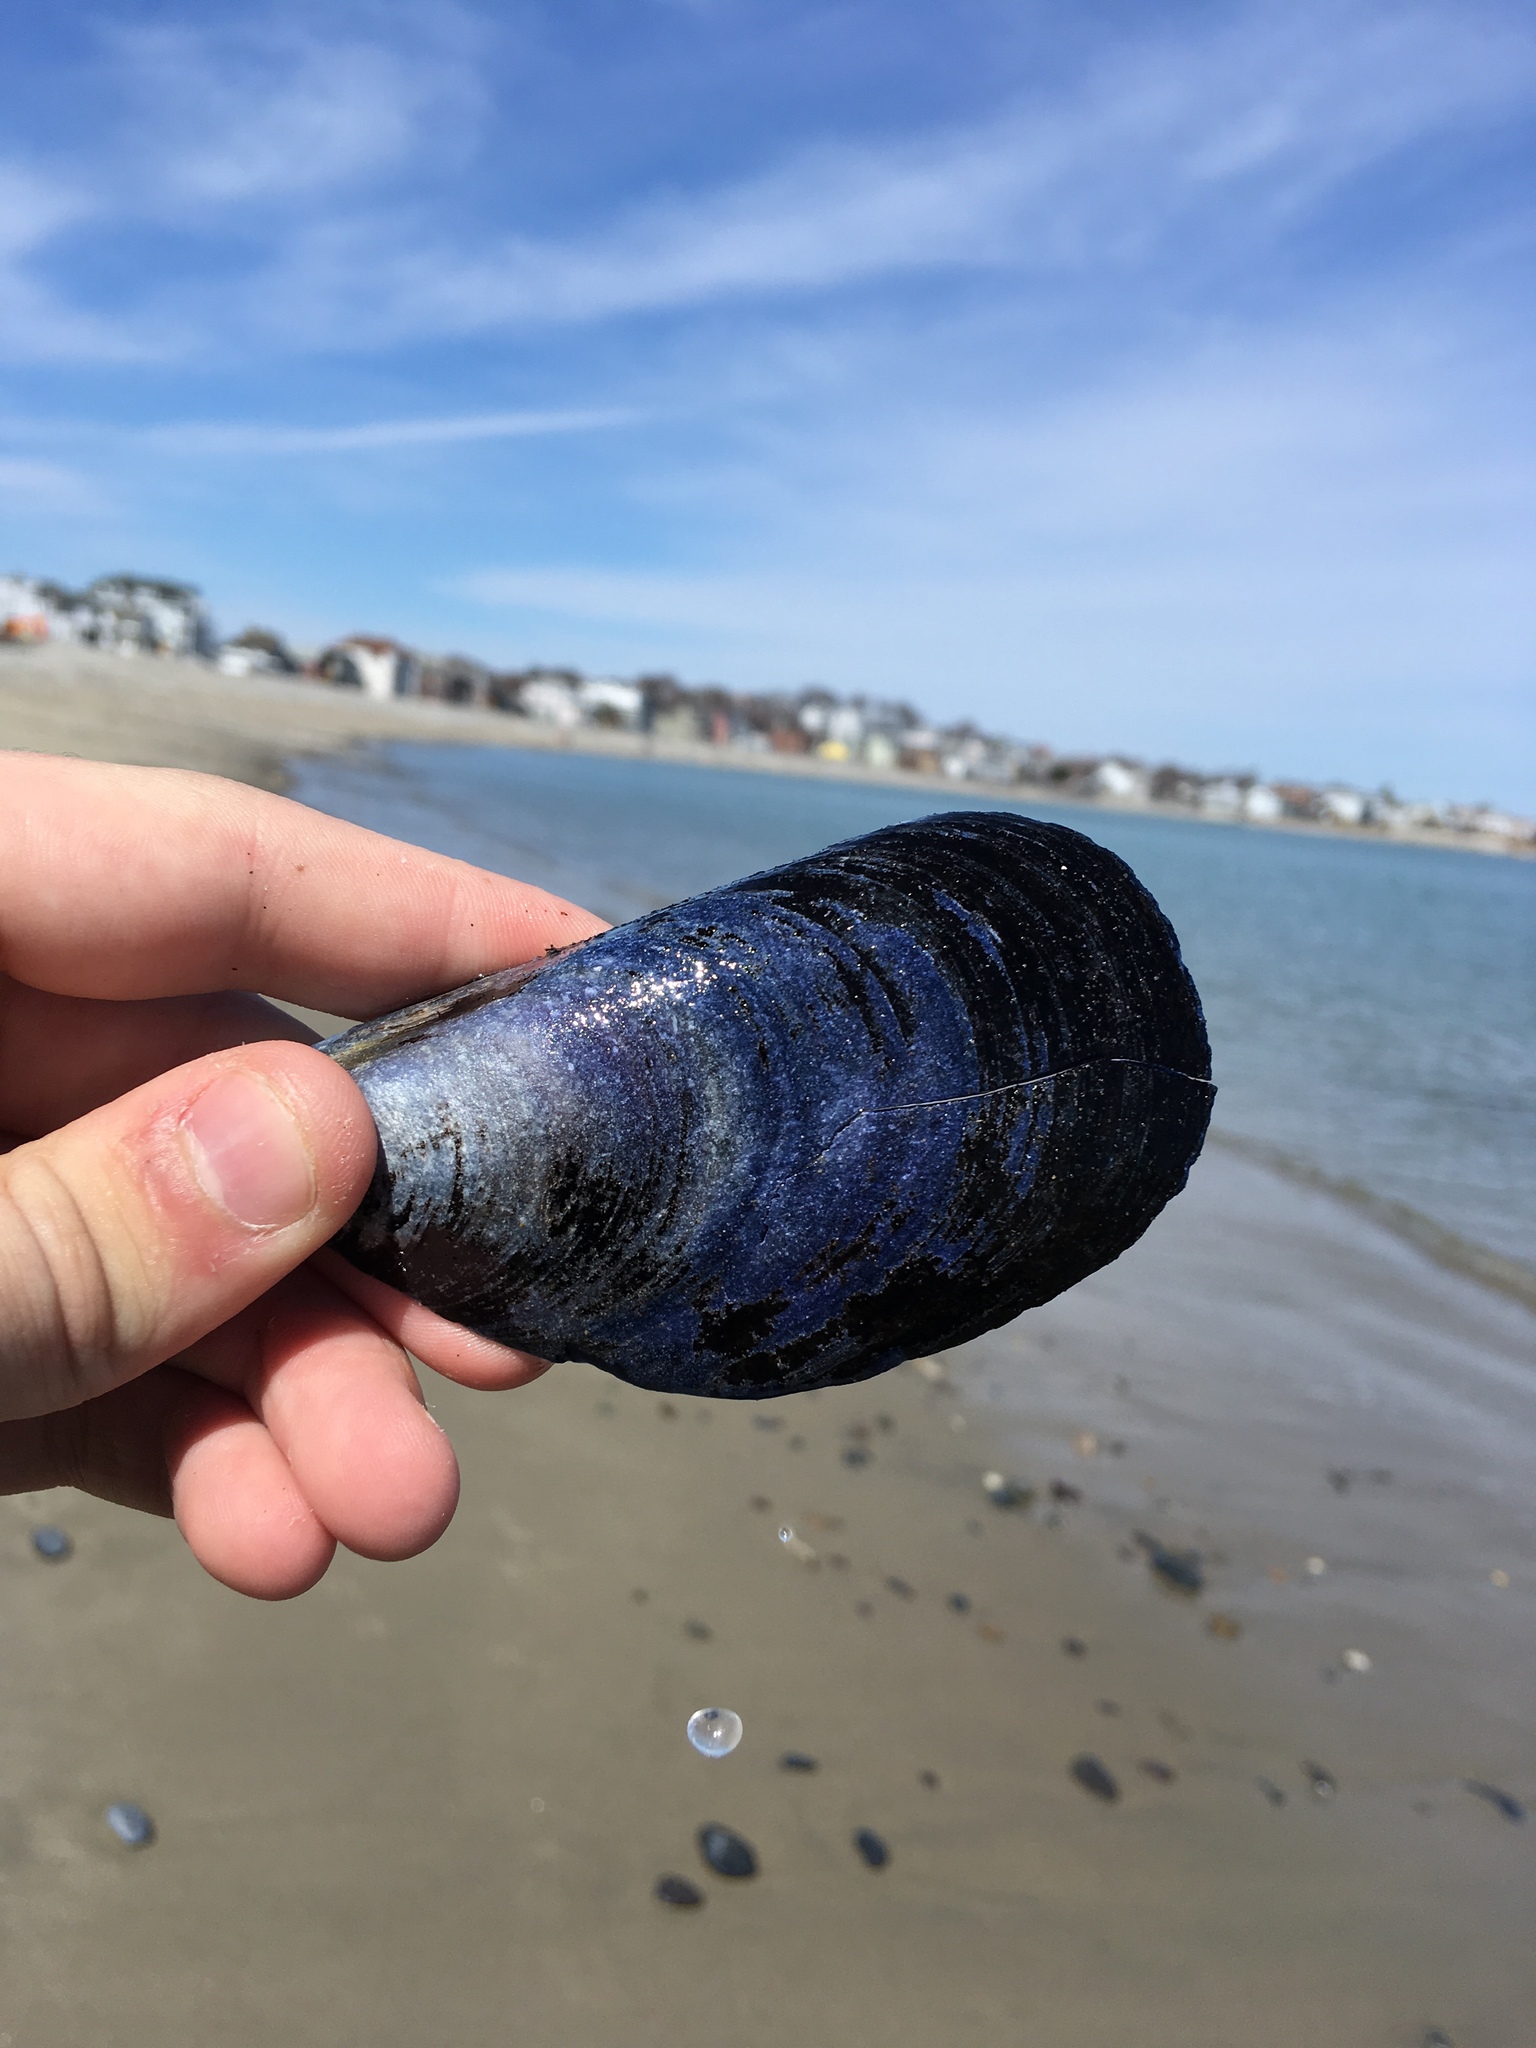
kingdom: Animalia
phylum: Mollusca
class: Bivalvia
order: Mytilida
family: Mytilidae
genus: Mytilus
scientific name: Mytilus edulis
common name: Blue mussel
